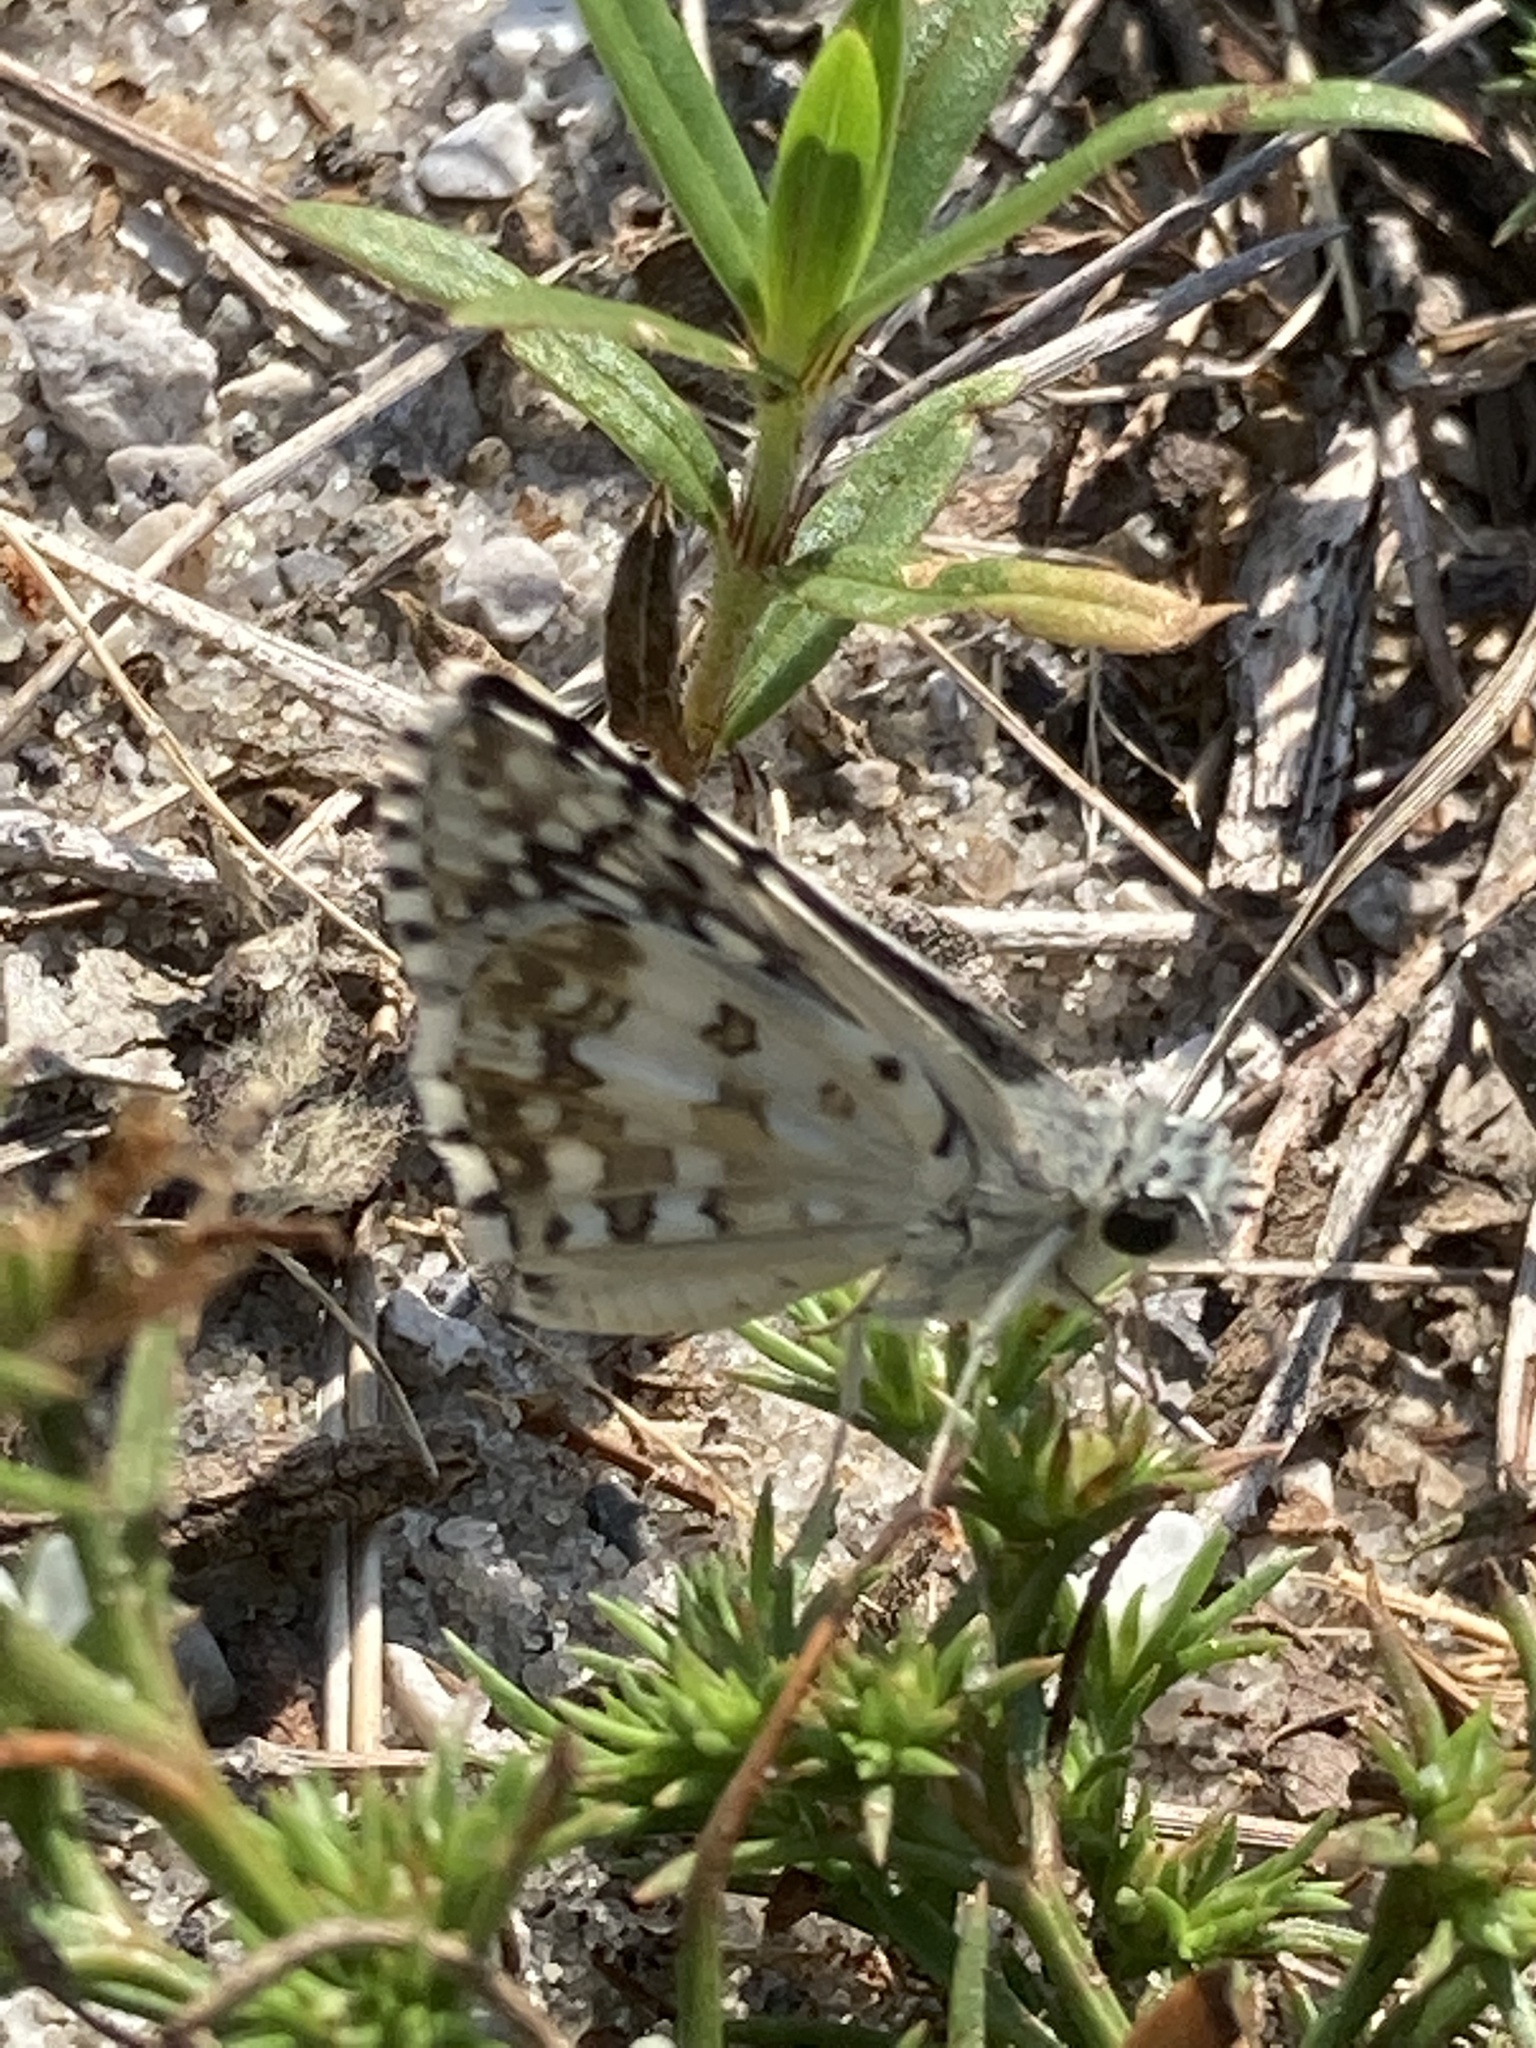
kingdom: Animalia
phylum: Arthropoda
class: Insecta
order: Lepidoptera
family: Hesperiidae
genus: Burnsius
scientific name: Burnsius albezens
